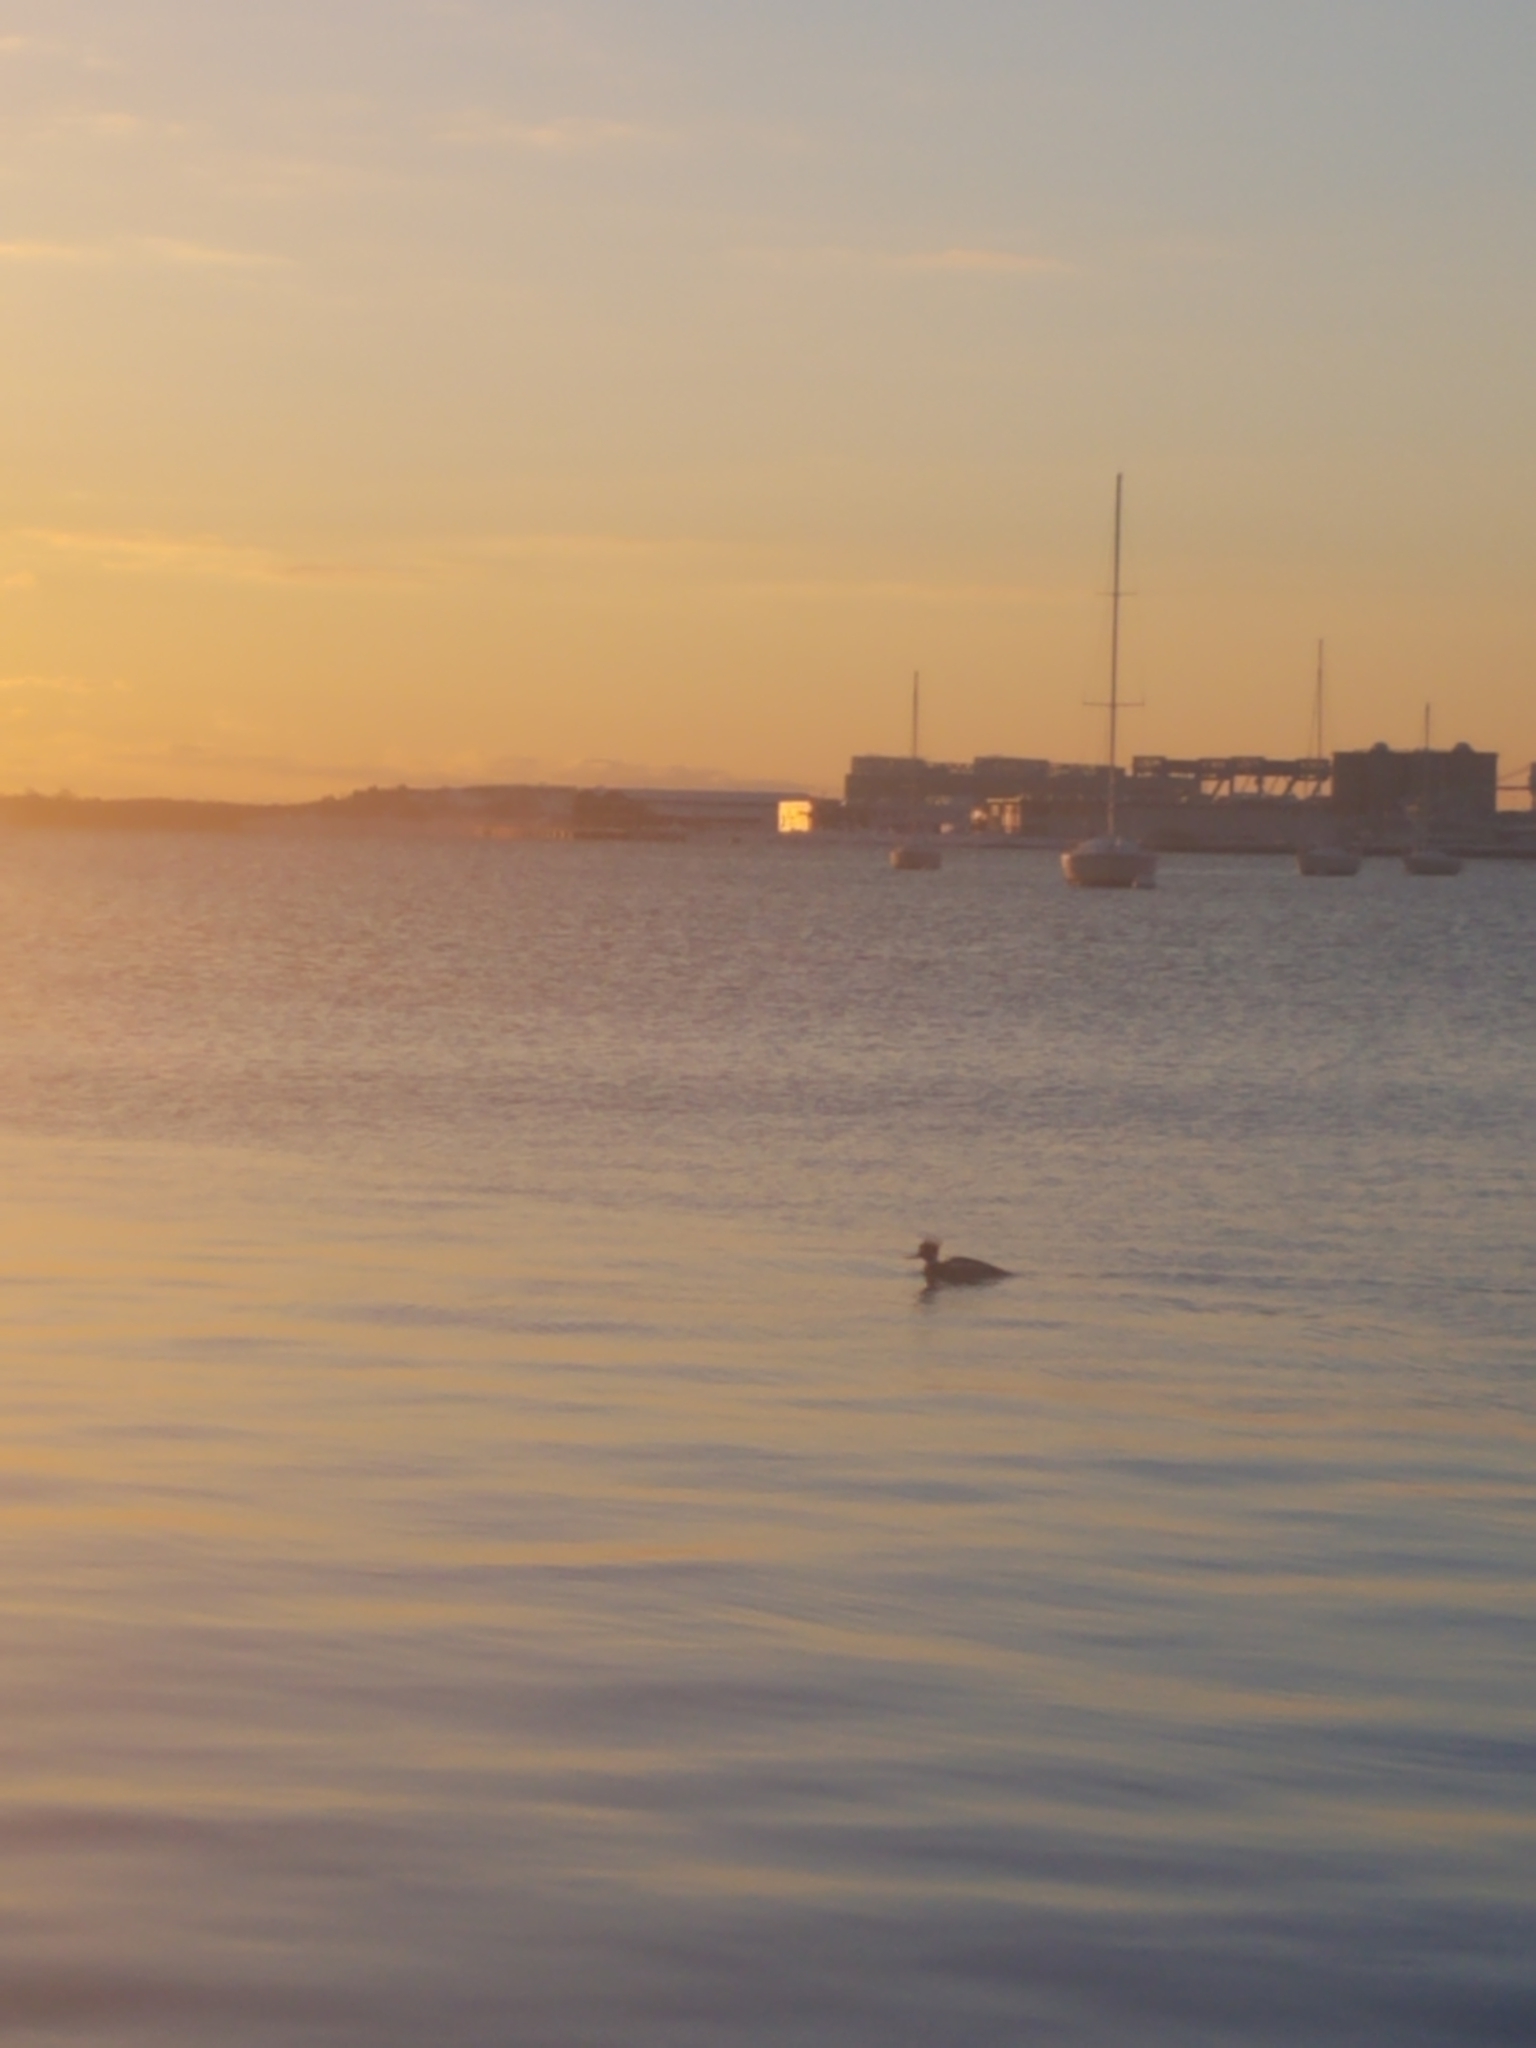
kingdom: Animalia
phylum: Chordata
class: Aves
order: Anseriformes
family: Anatidae
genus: Mergus
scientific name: Mergus serrator
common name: Red-breasted merganser
